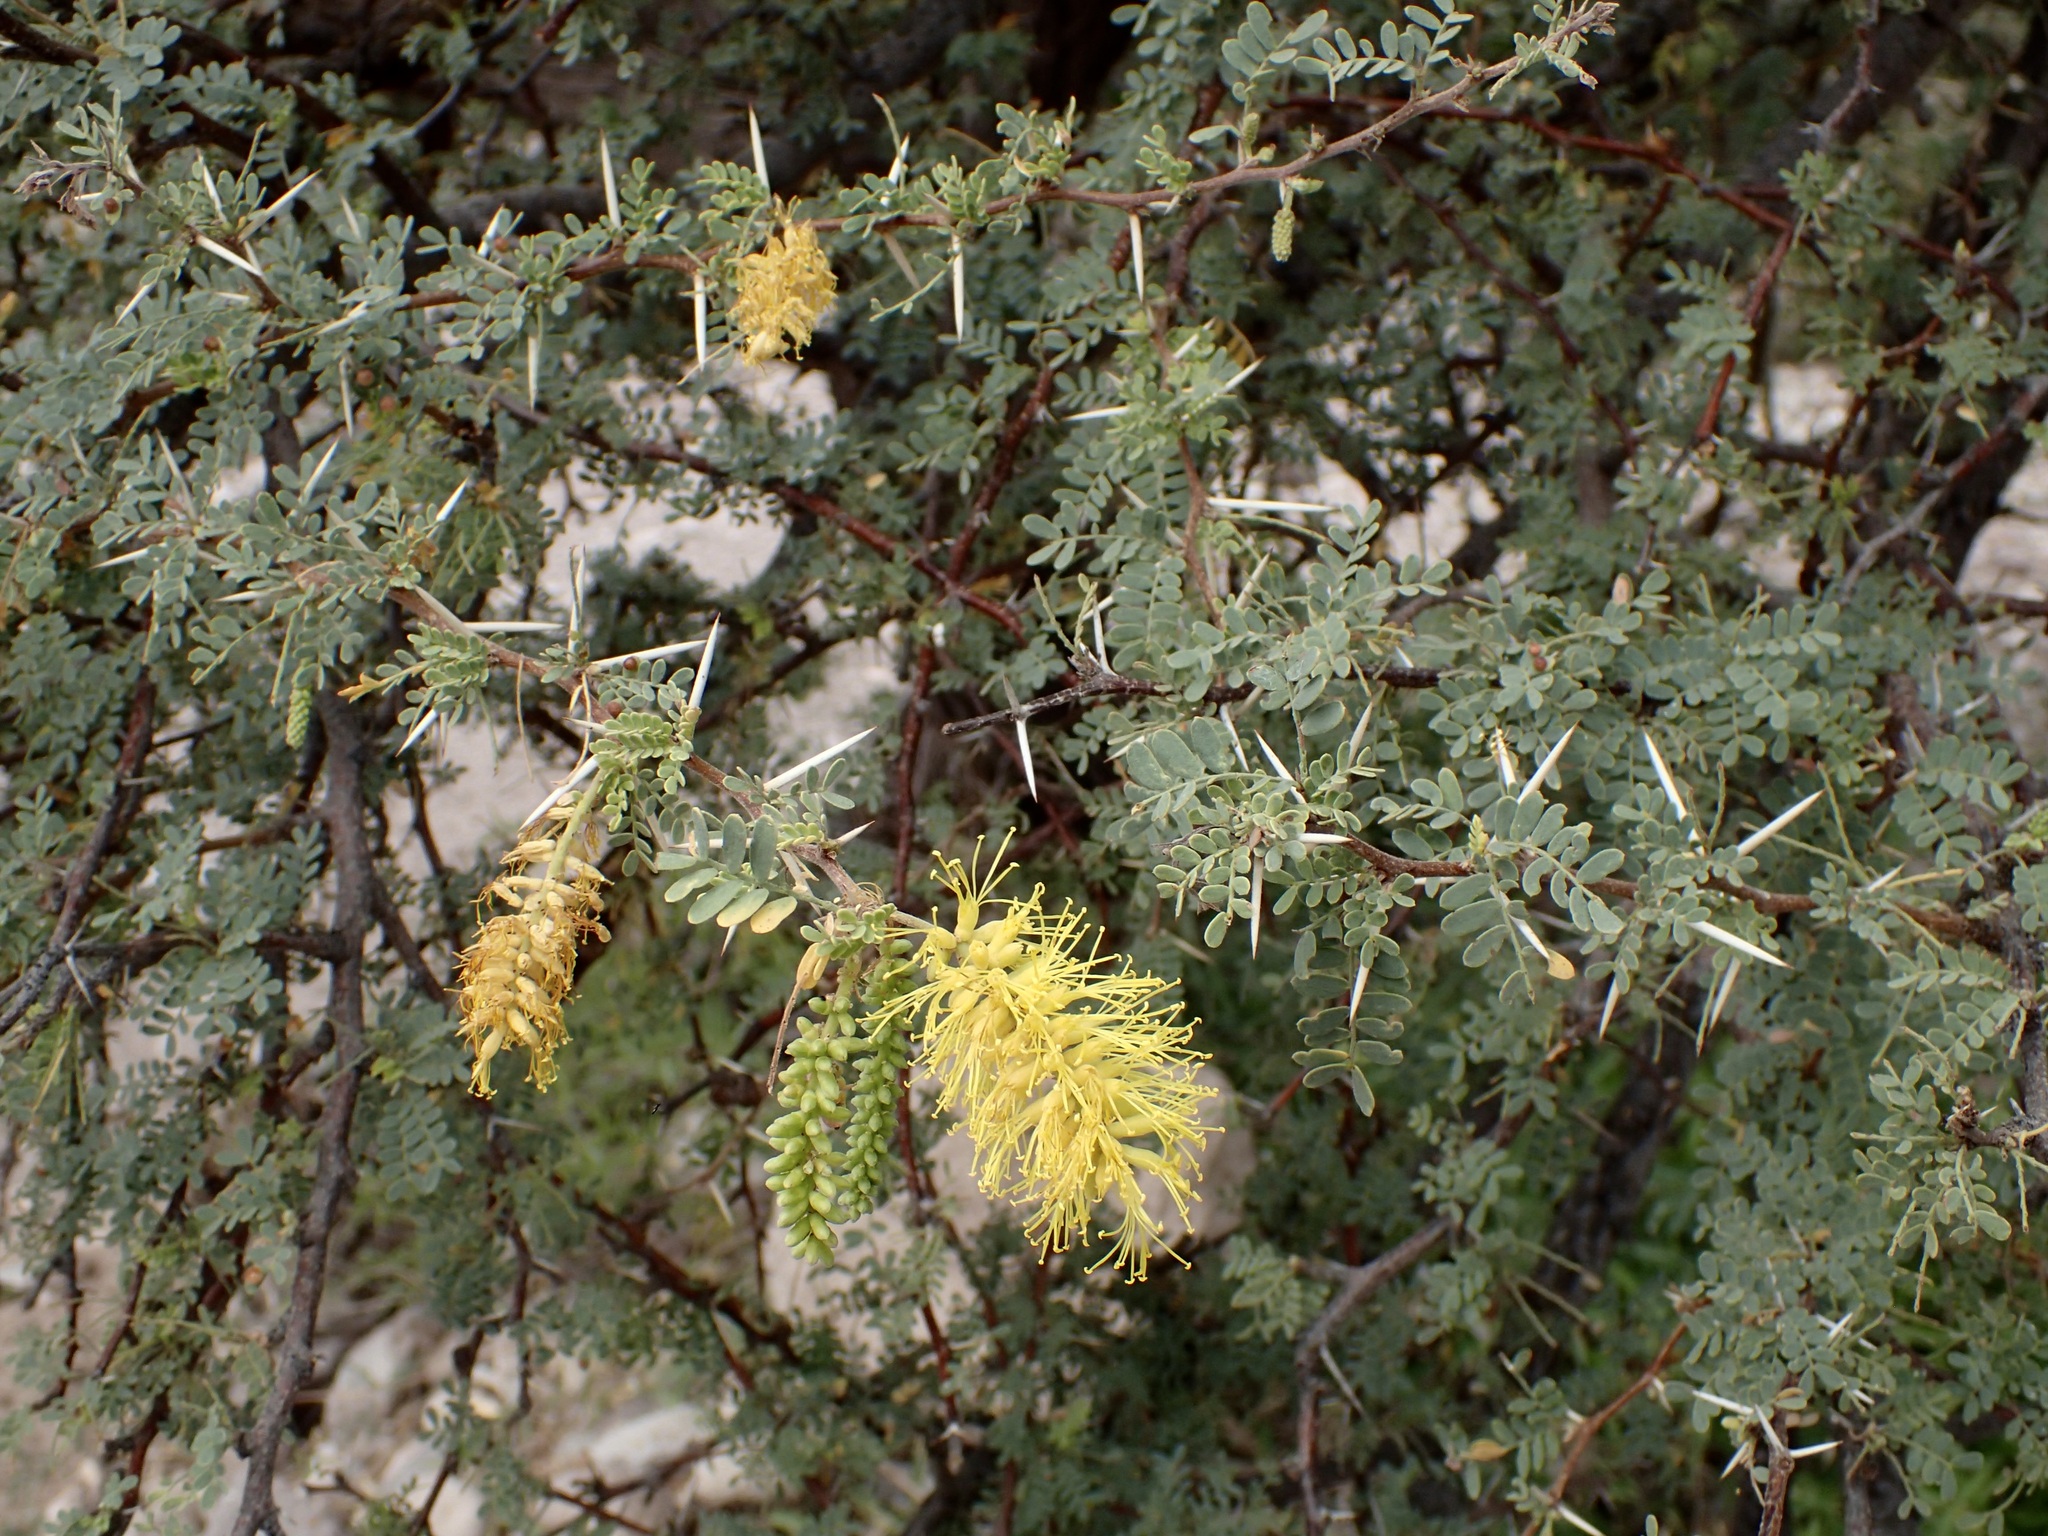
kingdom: Plantae
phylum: Tracheophyta
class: Magnoliopsida
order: Fabales
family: Fabaceae
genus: Prosopis
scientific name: Prosopis palmeri
